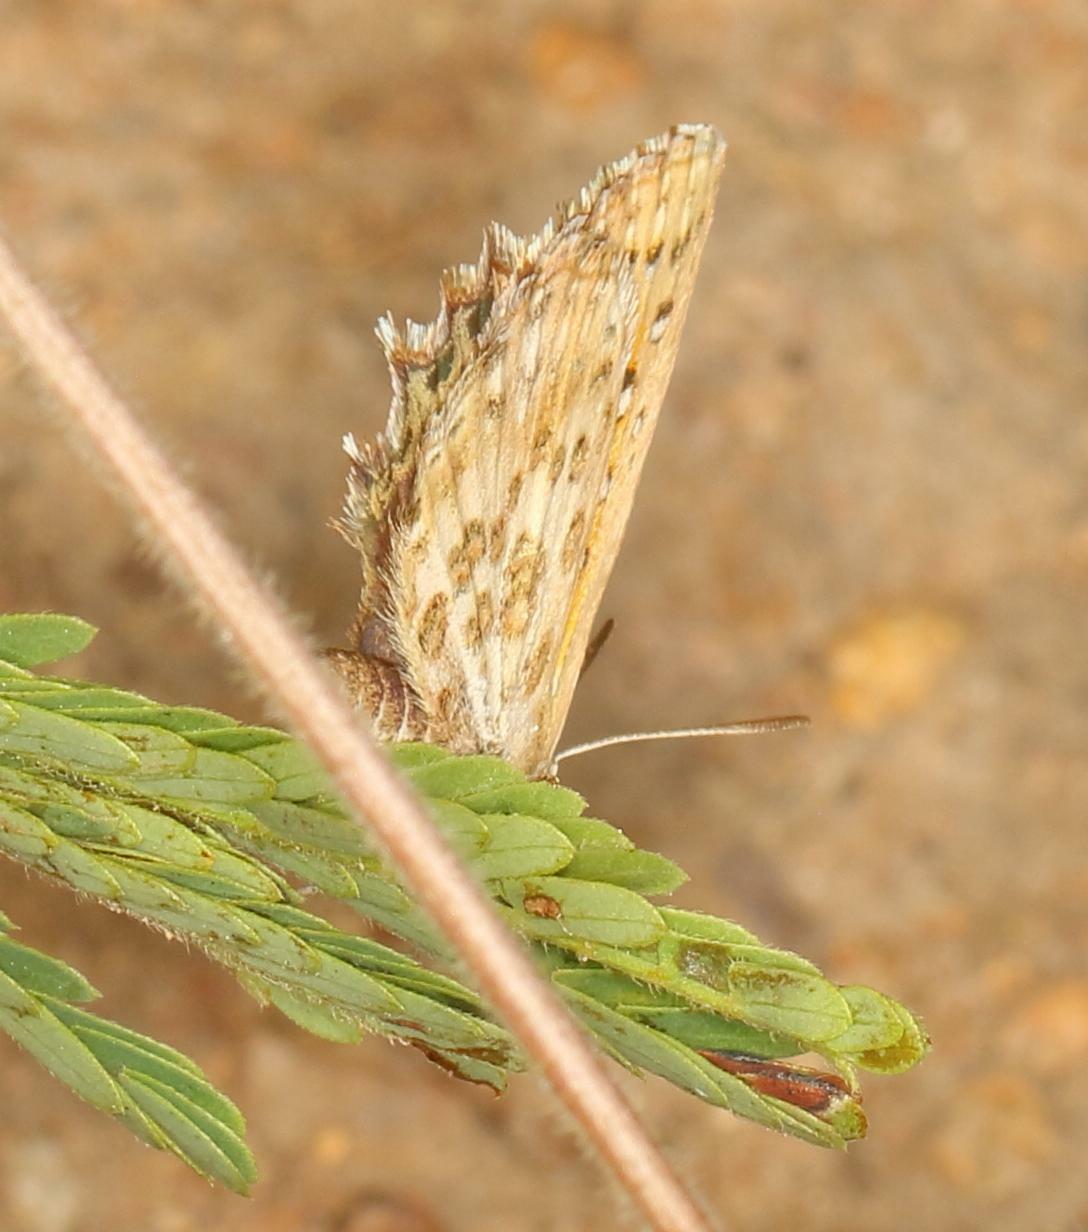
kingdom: Animalia
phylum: Arthropoda
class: Insecta
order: Lepidoptera
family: Lycaenidae
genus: Aloeides
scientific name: Aloeides taikosama
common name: Dusky copper
